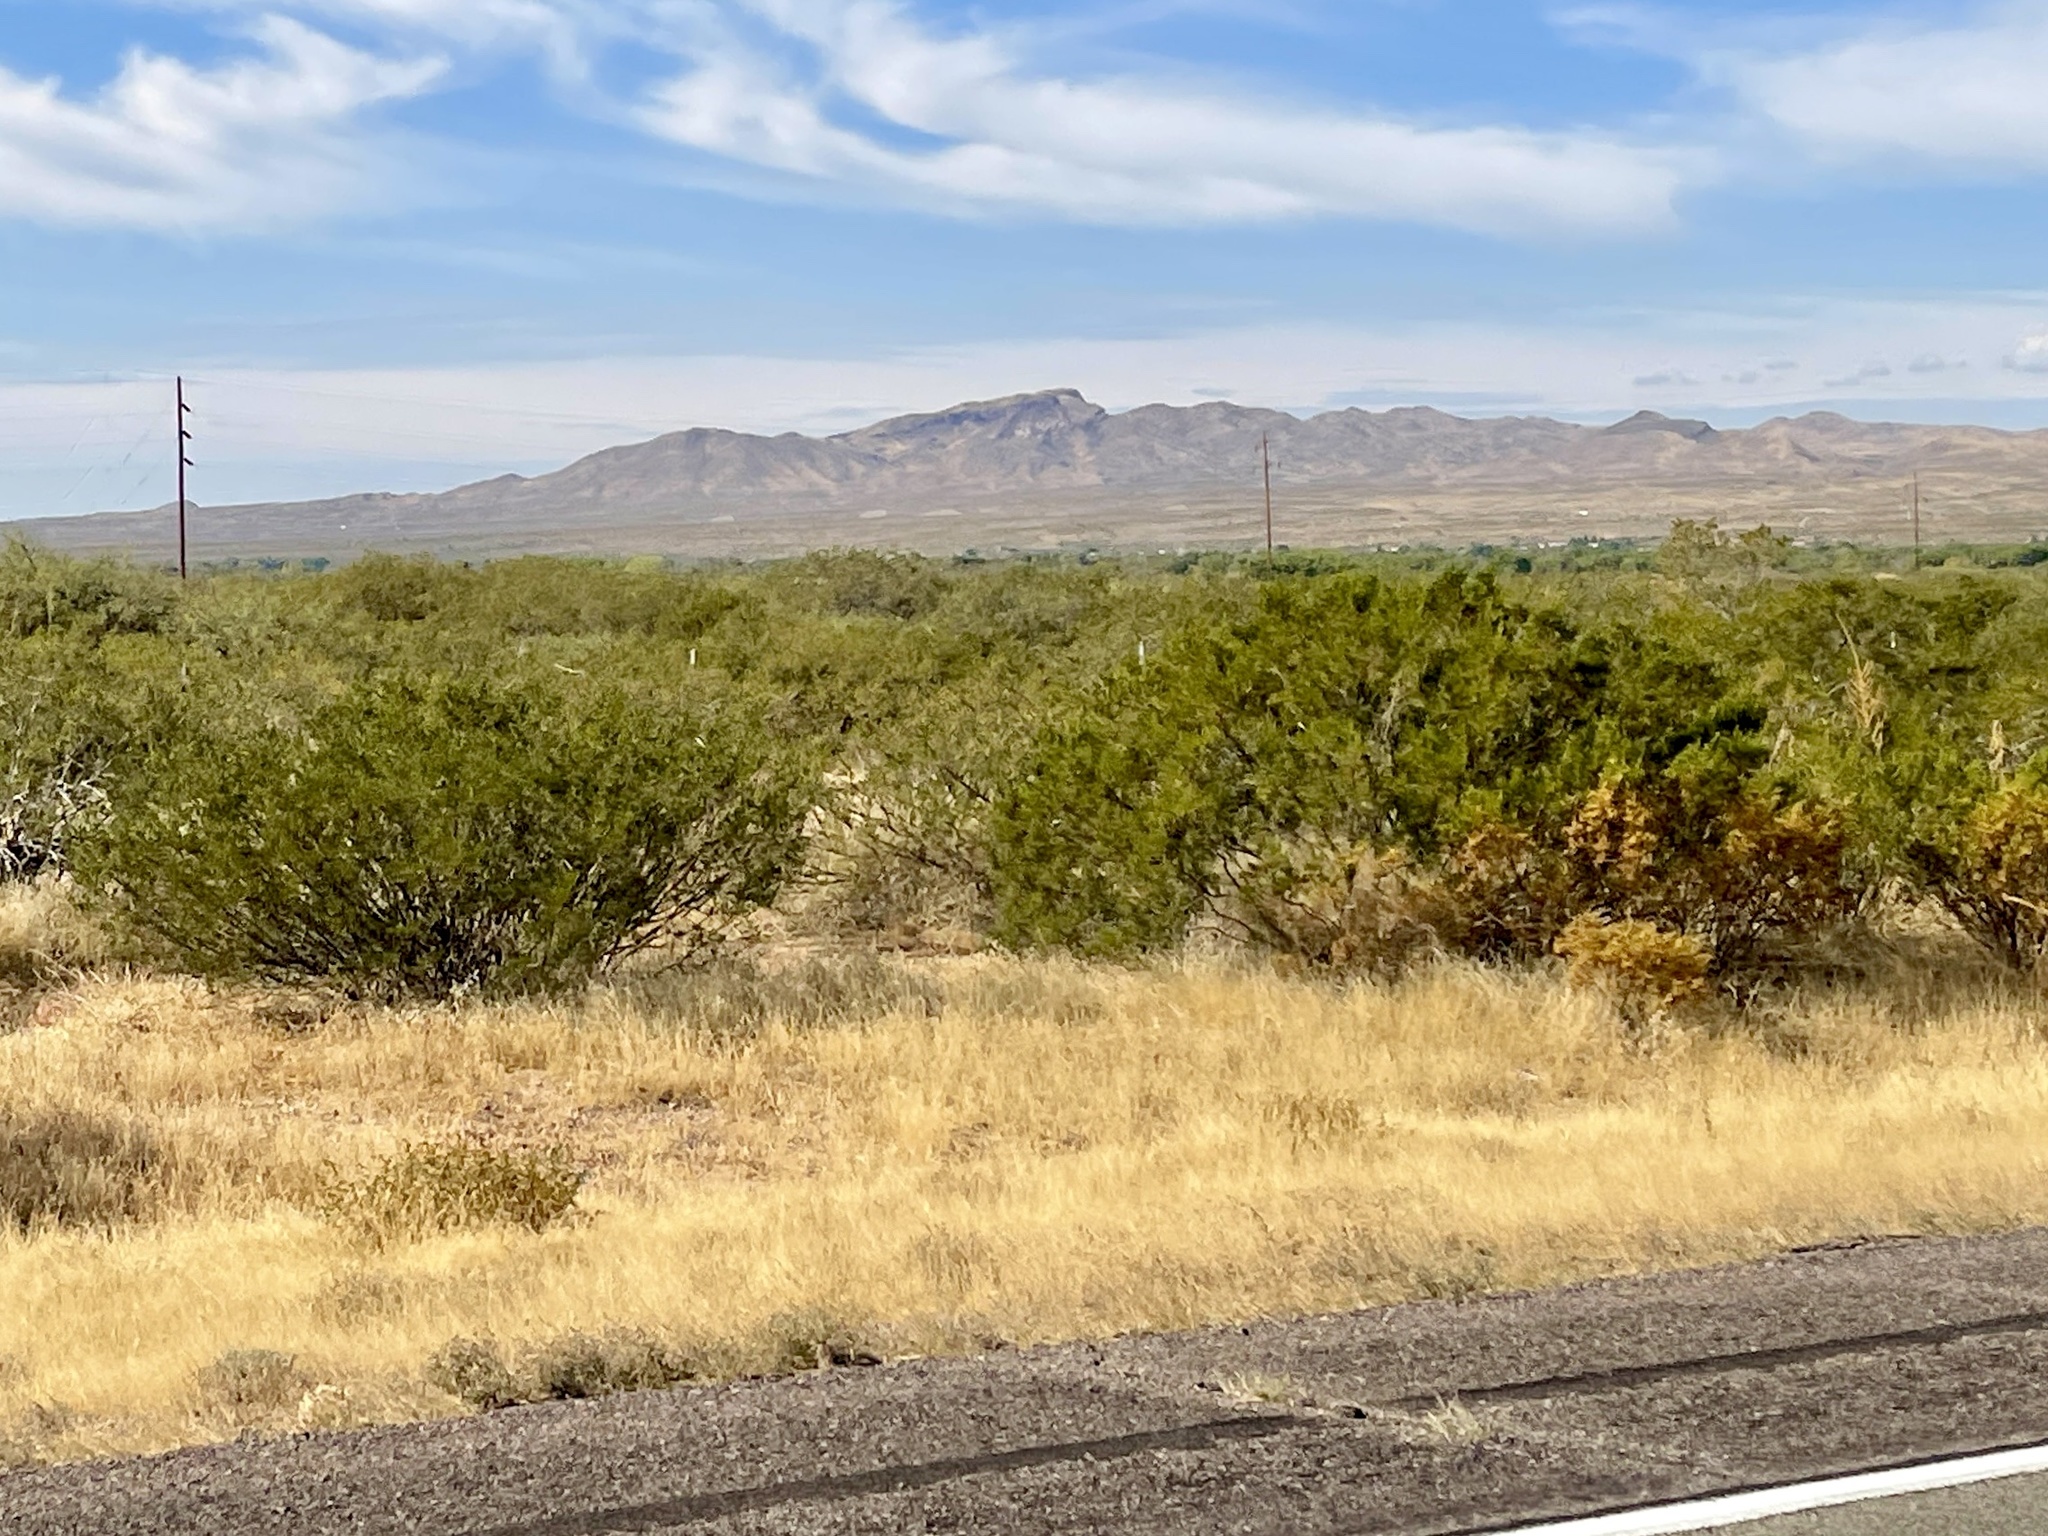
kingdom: Plantae
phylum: Tracheophyta
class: Magnoliopsida
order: Zygophyllales
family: Zygophyllaceae
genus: Larrea
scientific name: Larrea tridentata
